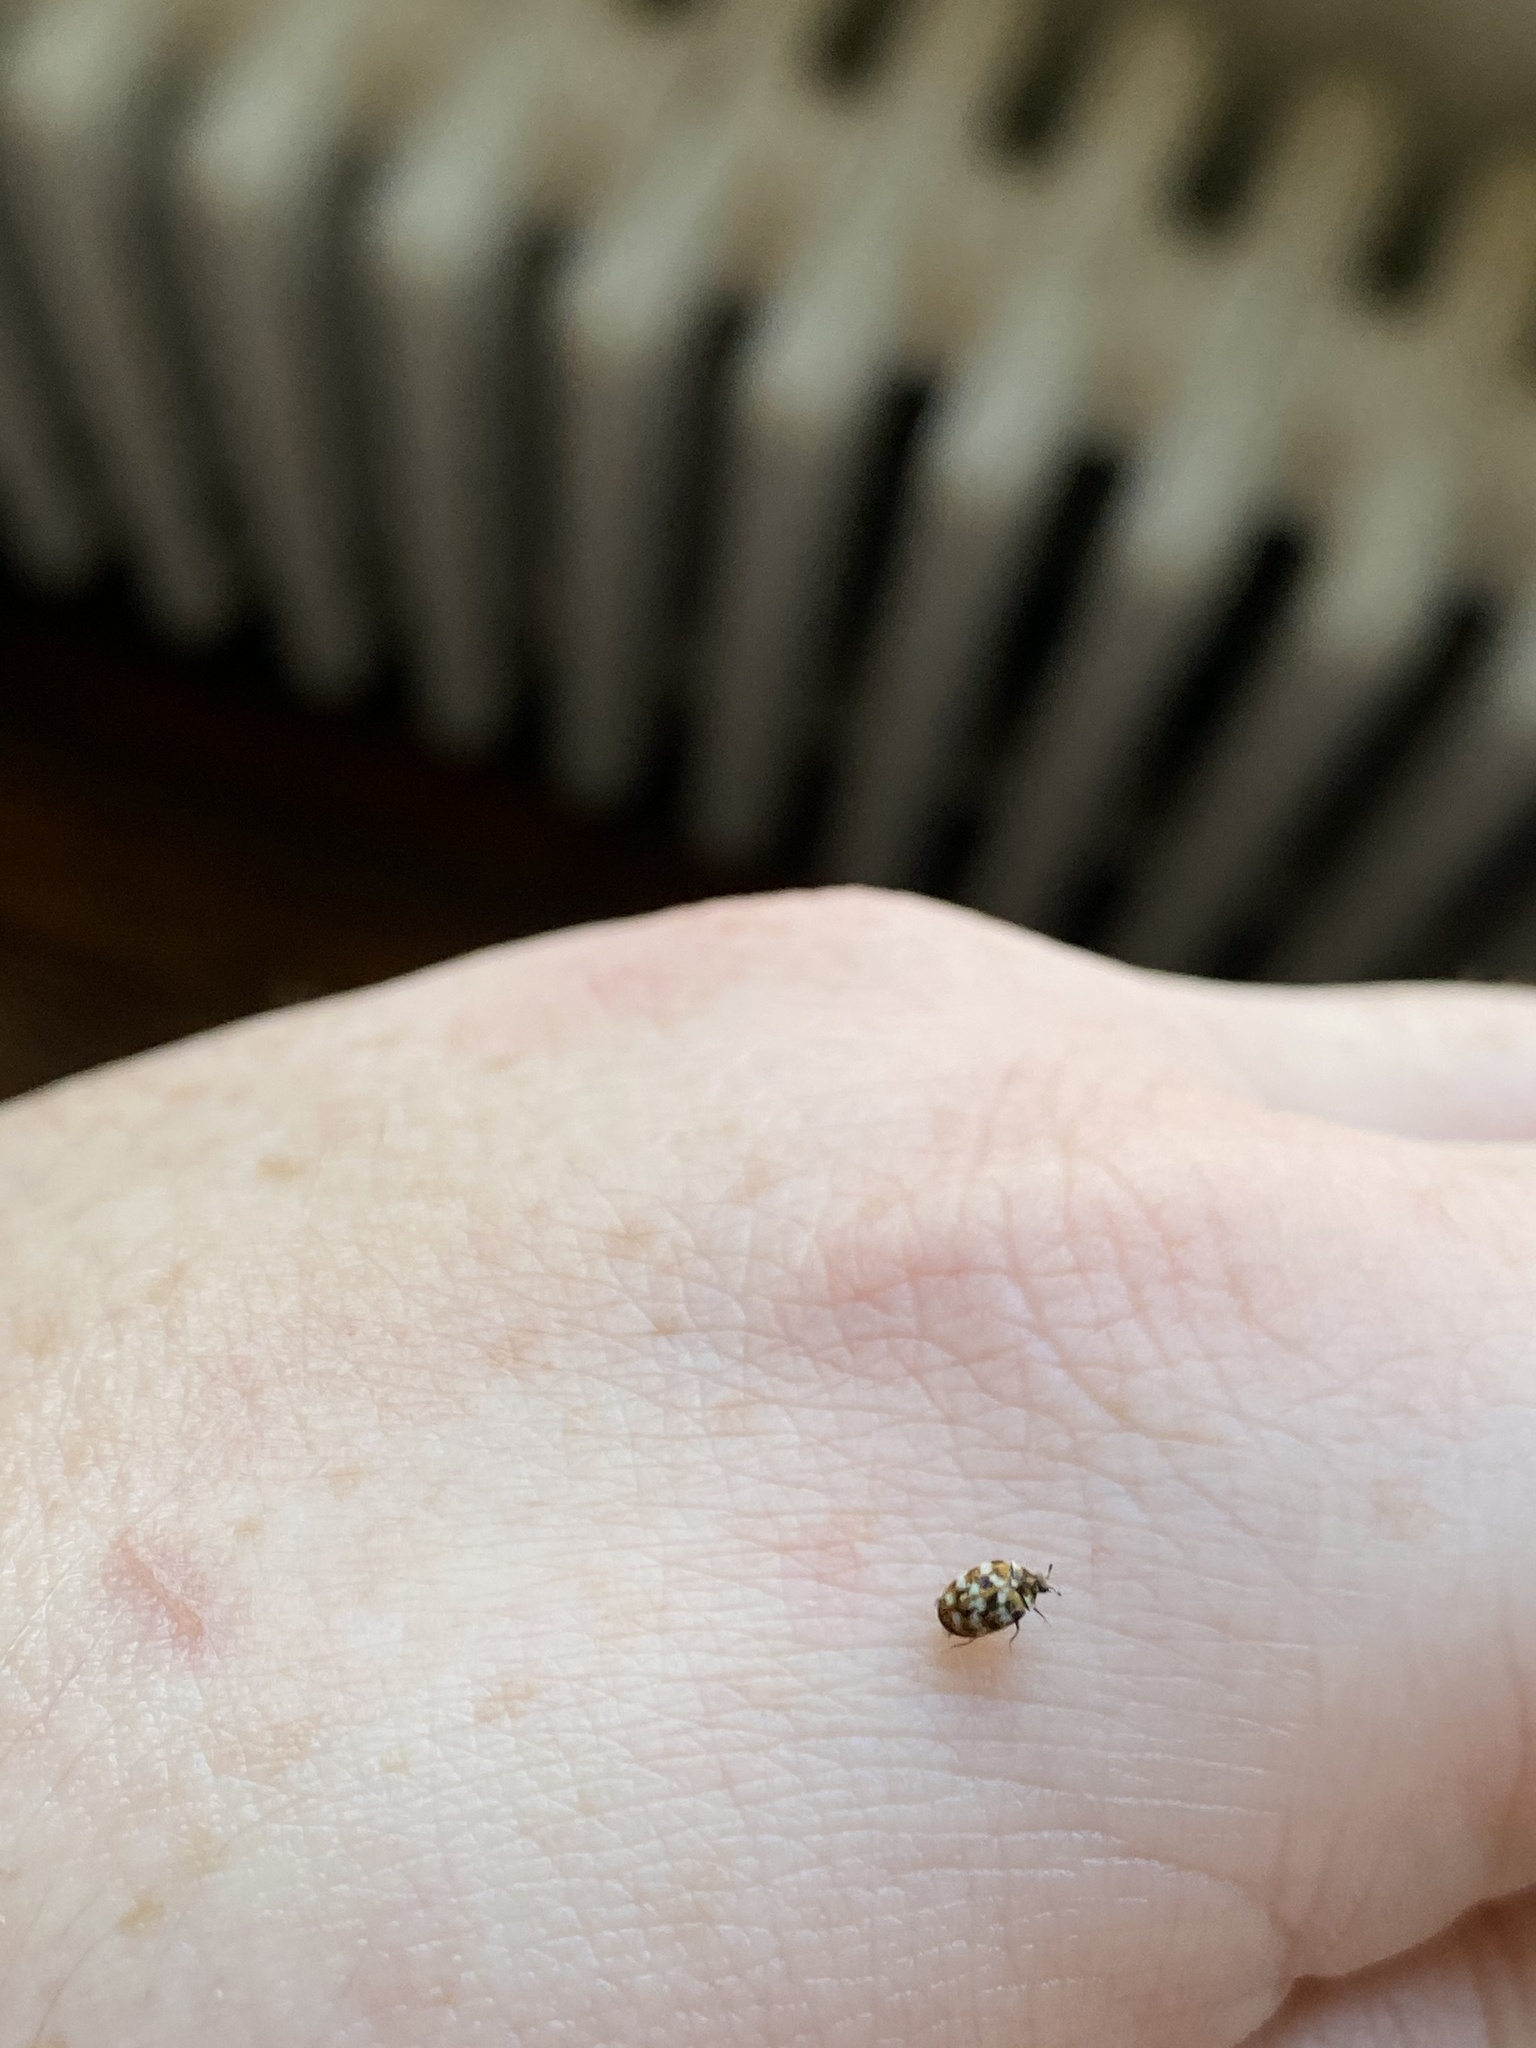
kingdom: Animalia
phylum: Arthropoda
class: Insecta
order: Coleoptera
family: Dermestidae
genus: Anthrenus
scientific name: Anthrenus verbasci
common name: Varied carpet beetle
